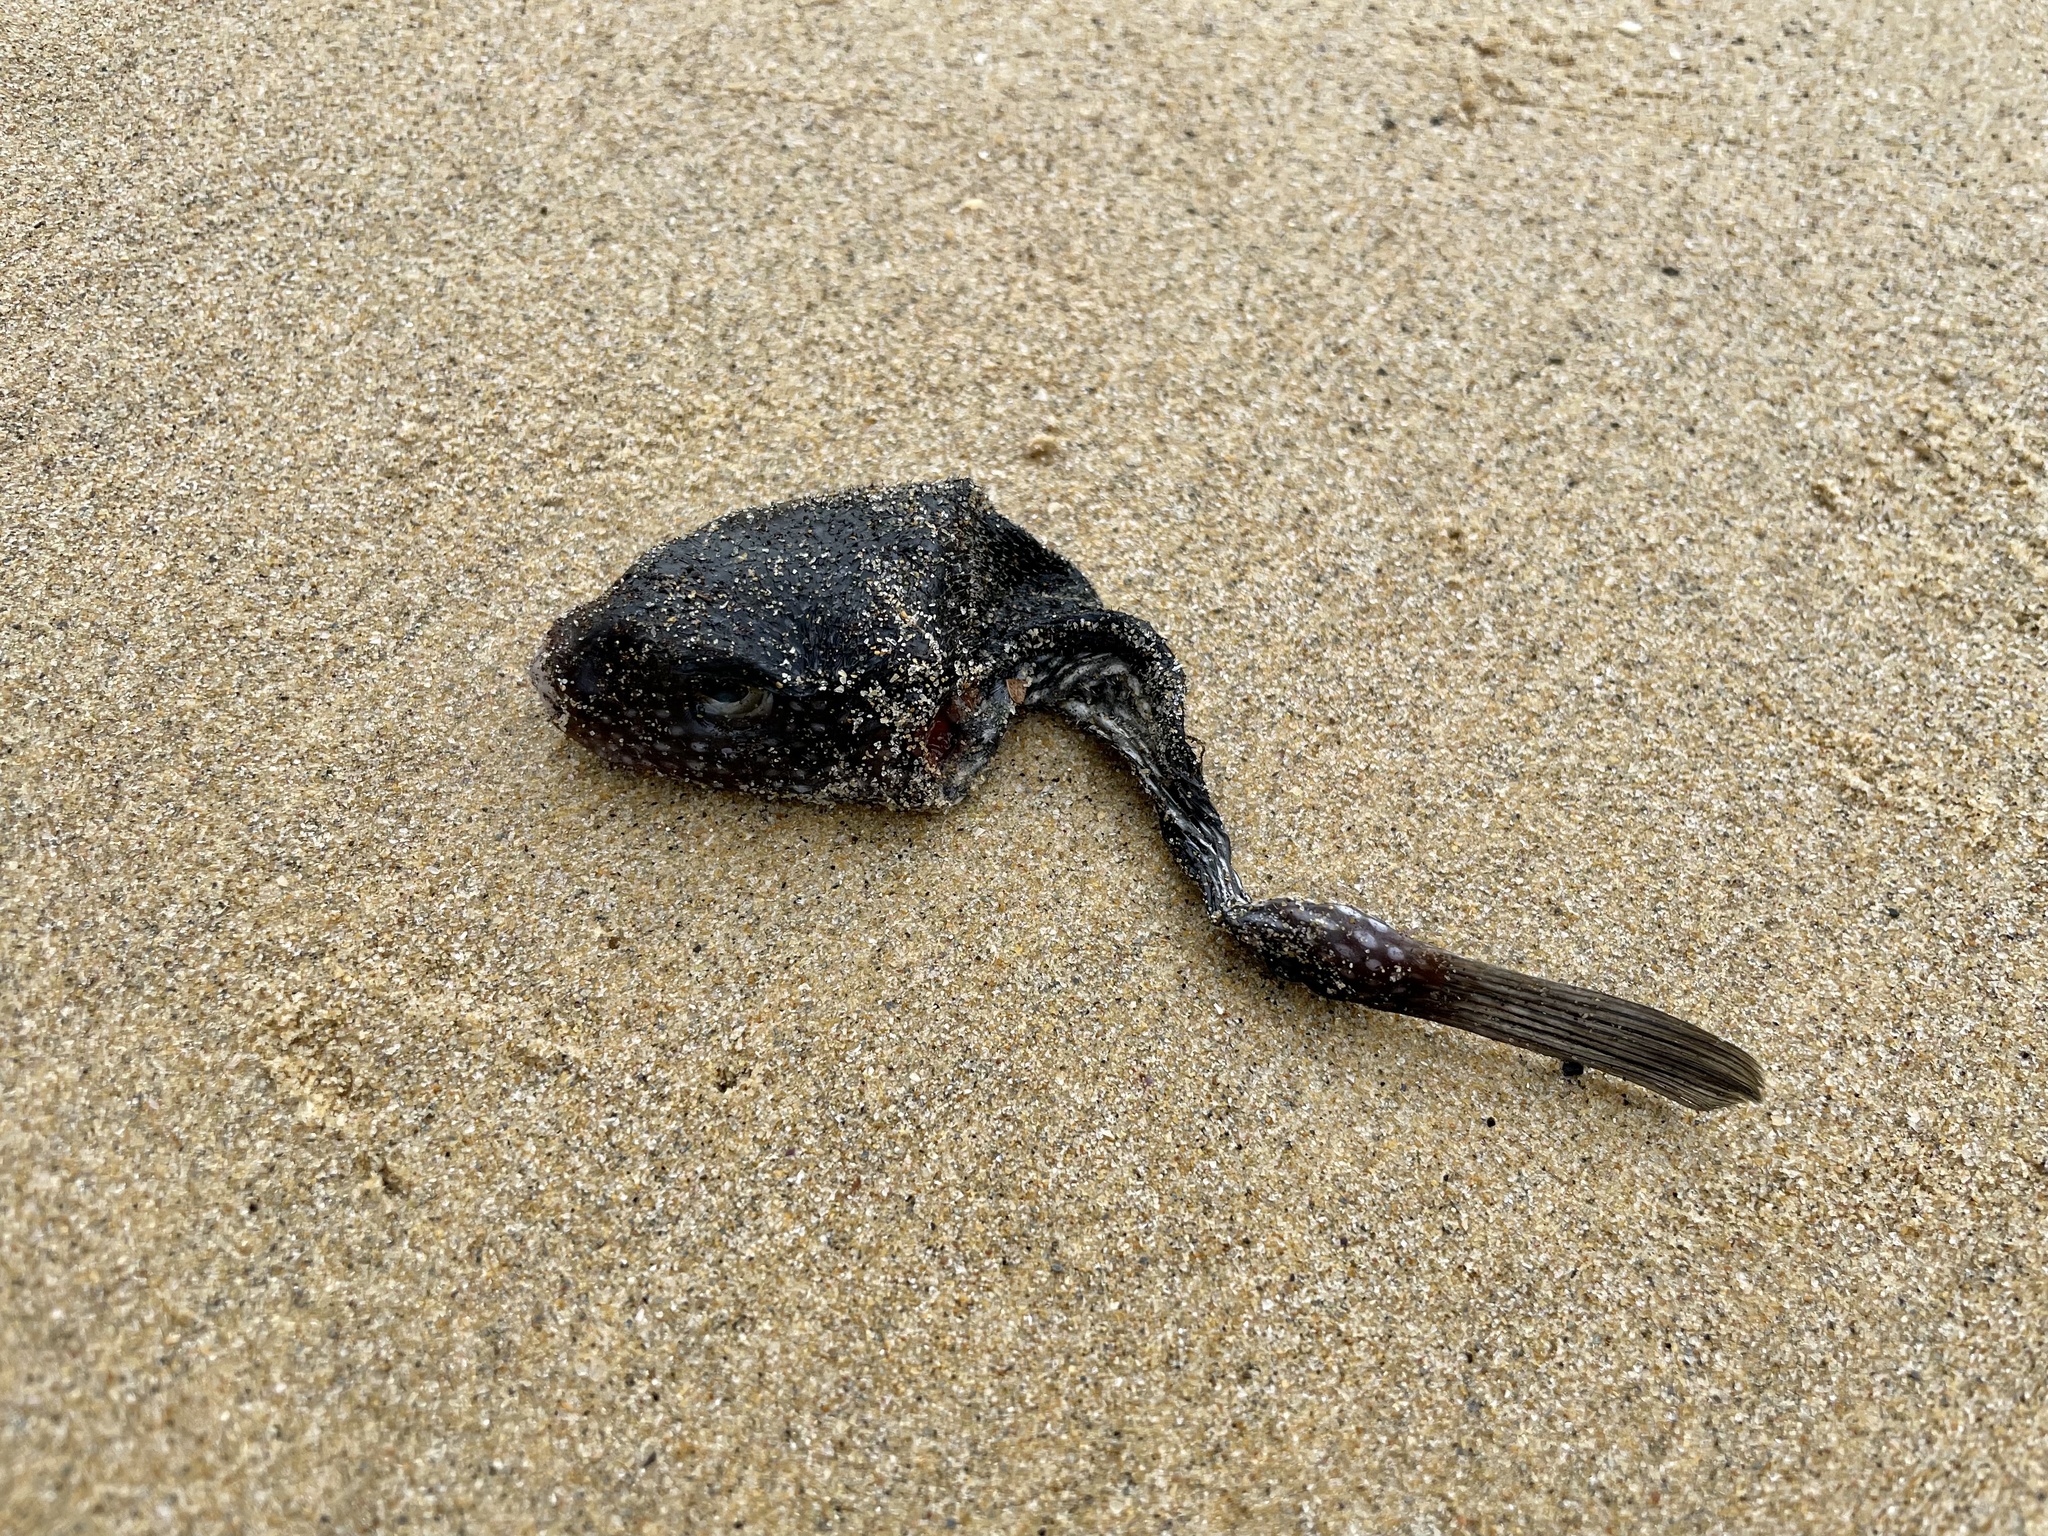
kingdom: Animalia
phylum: Chordata
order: Tetraodontiformes
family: Tetraodontidae
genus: Arothron
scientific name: Arothron firmamentum
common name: Starry toado
